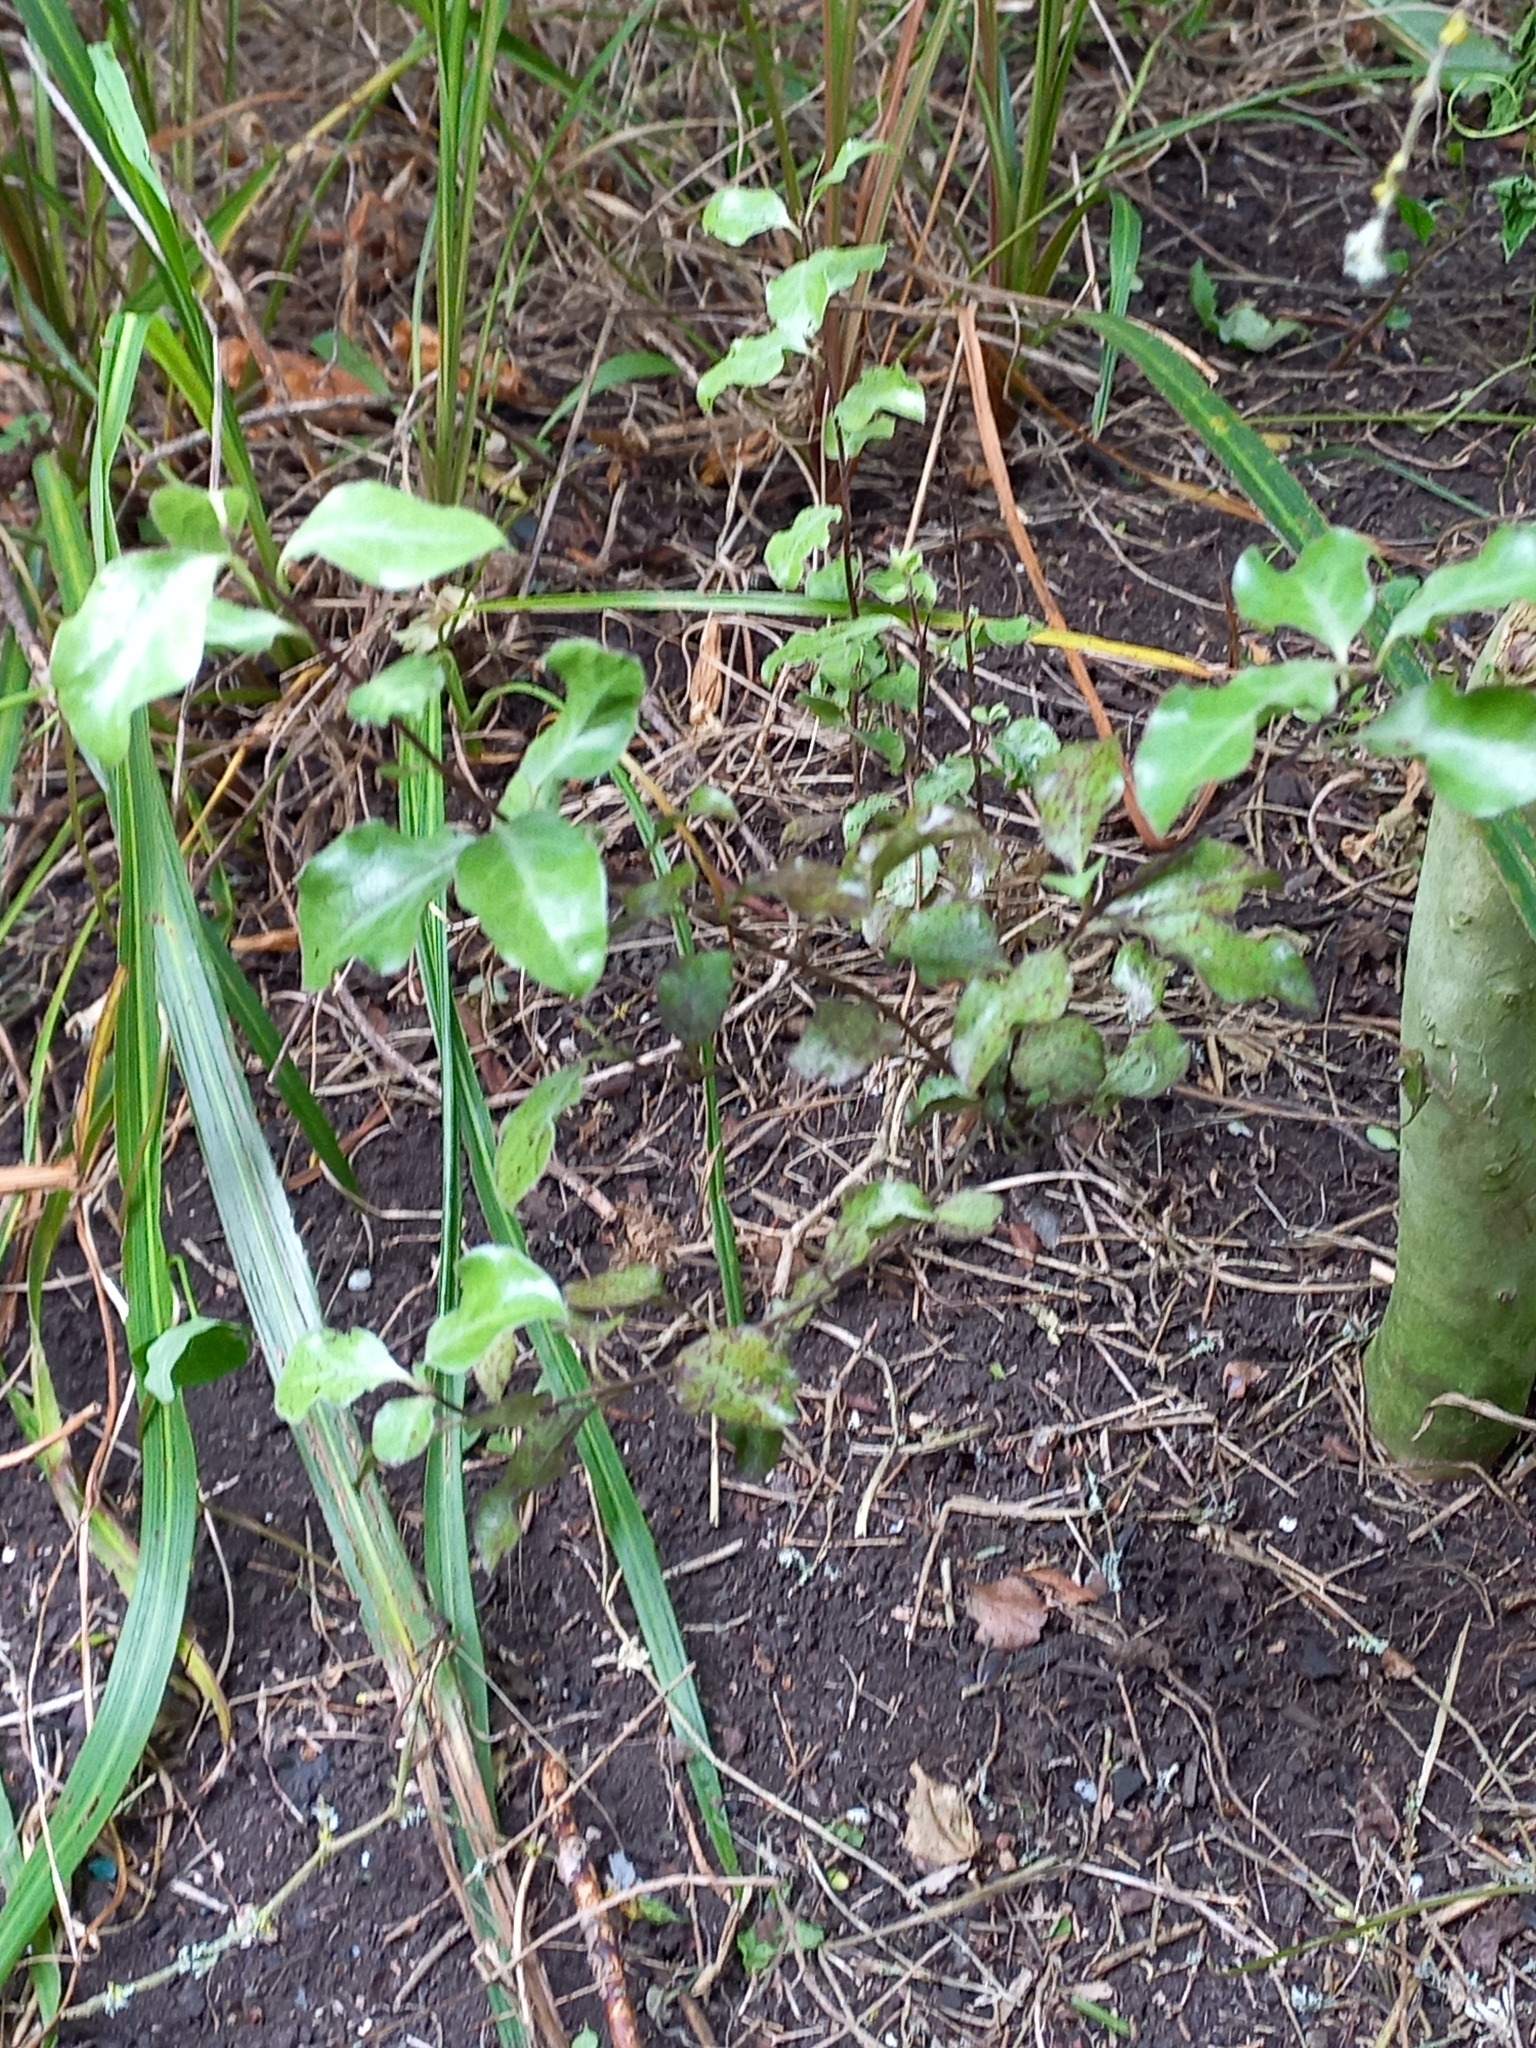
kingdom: Plantae
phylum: Tracheophyta
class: Magnoliopsida
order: Apiales
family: Pittosporaceae
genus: Pittosporum
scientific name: Pittosporum tenuifolium
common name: Kohuhu
